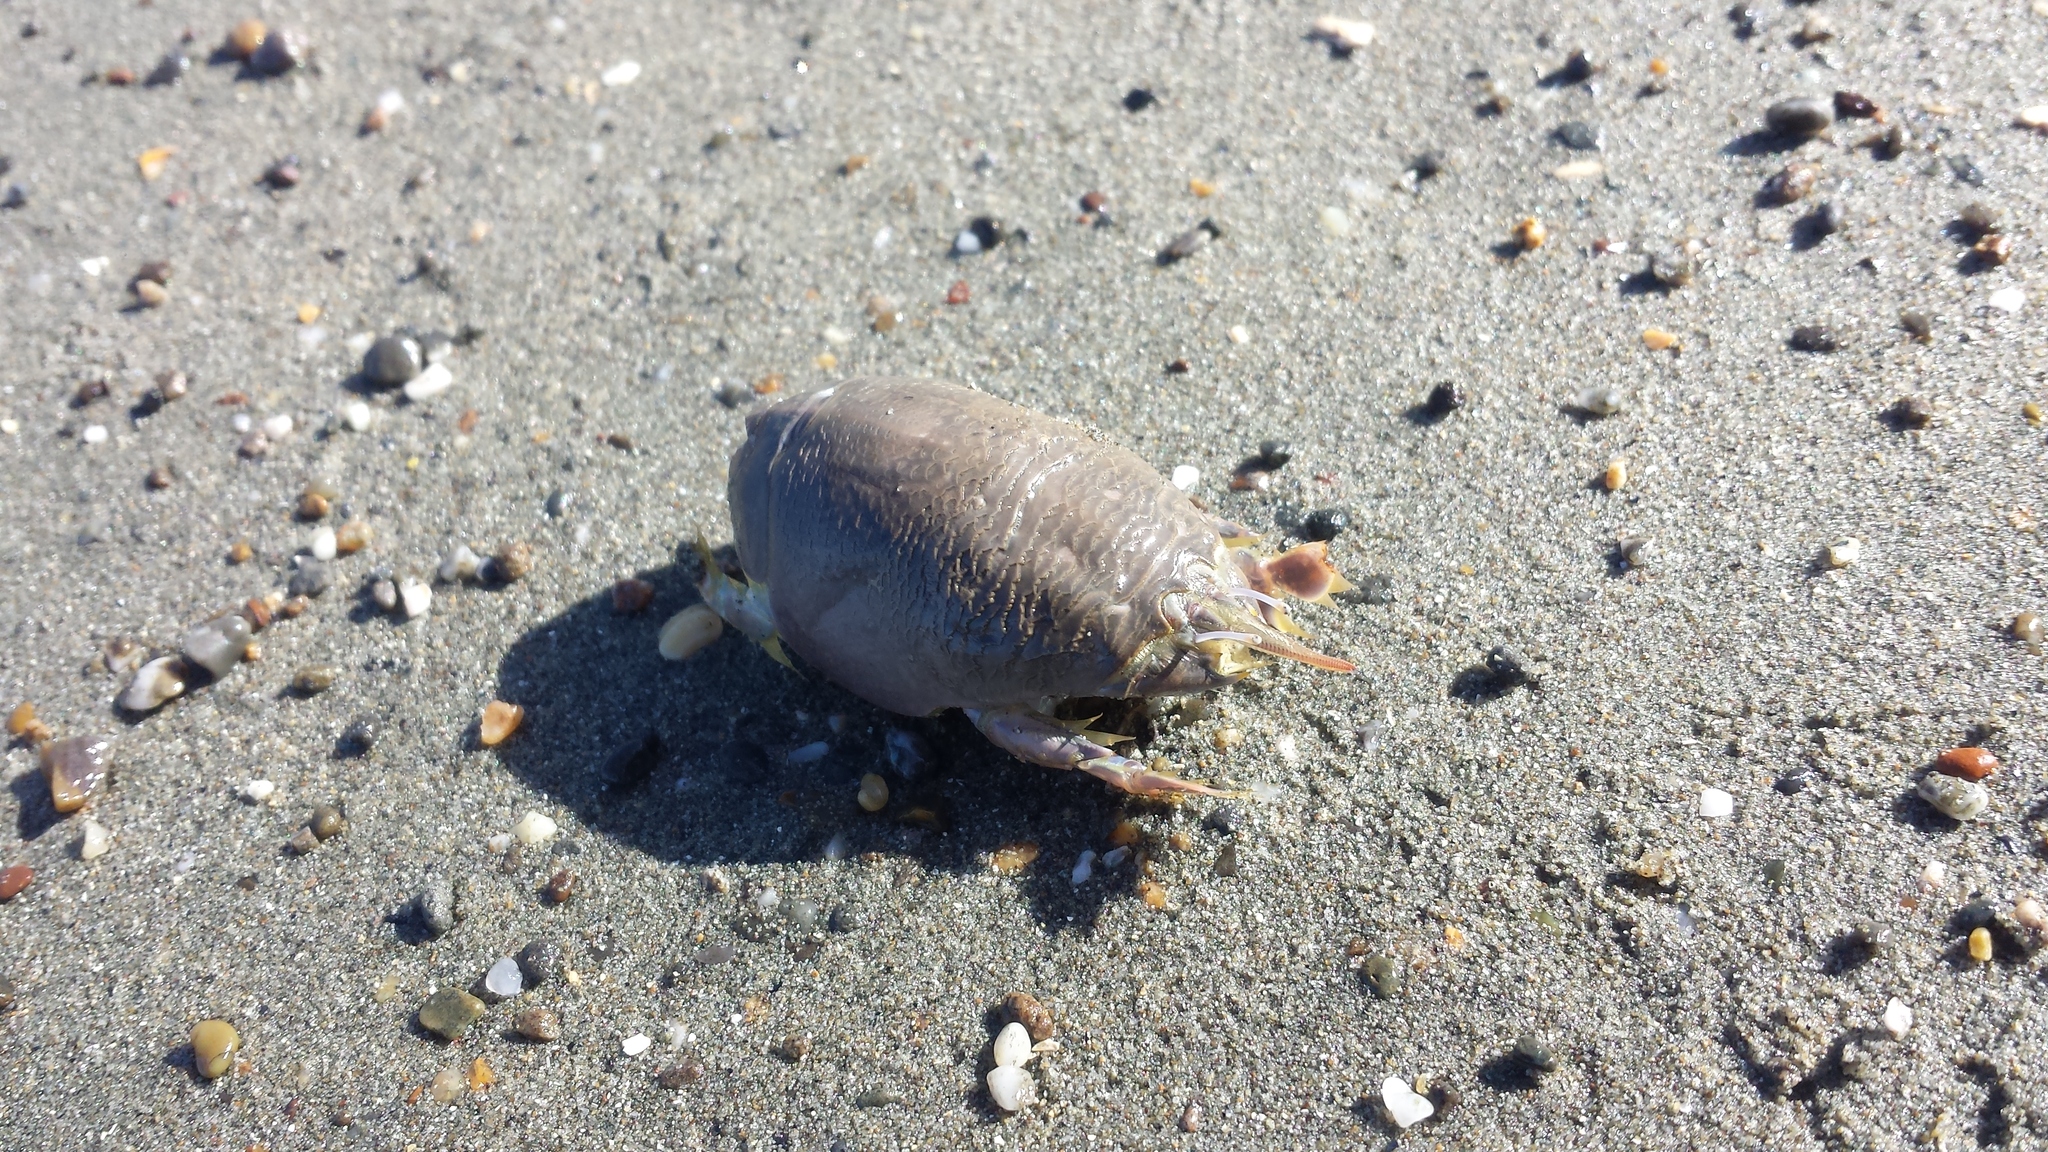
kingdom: Animalia
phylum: Arthropoda
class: Malacostraca
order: Decapoda
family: Hippidae
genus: Emerita
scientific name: Emerita analoga
